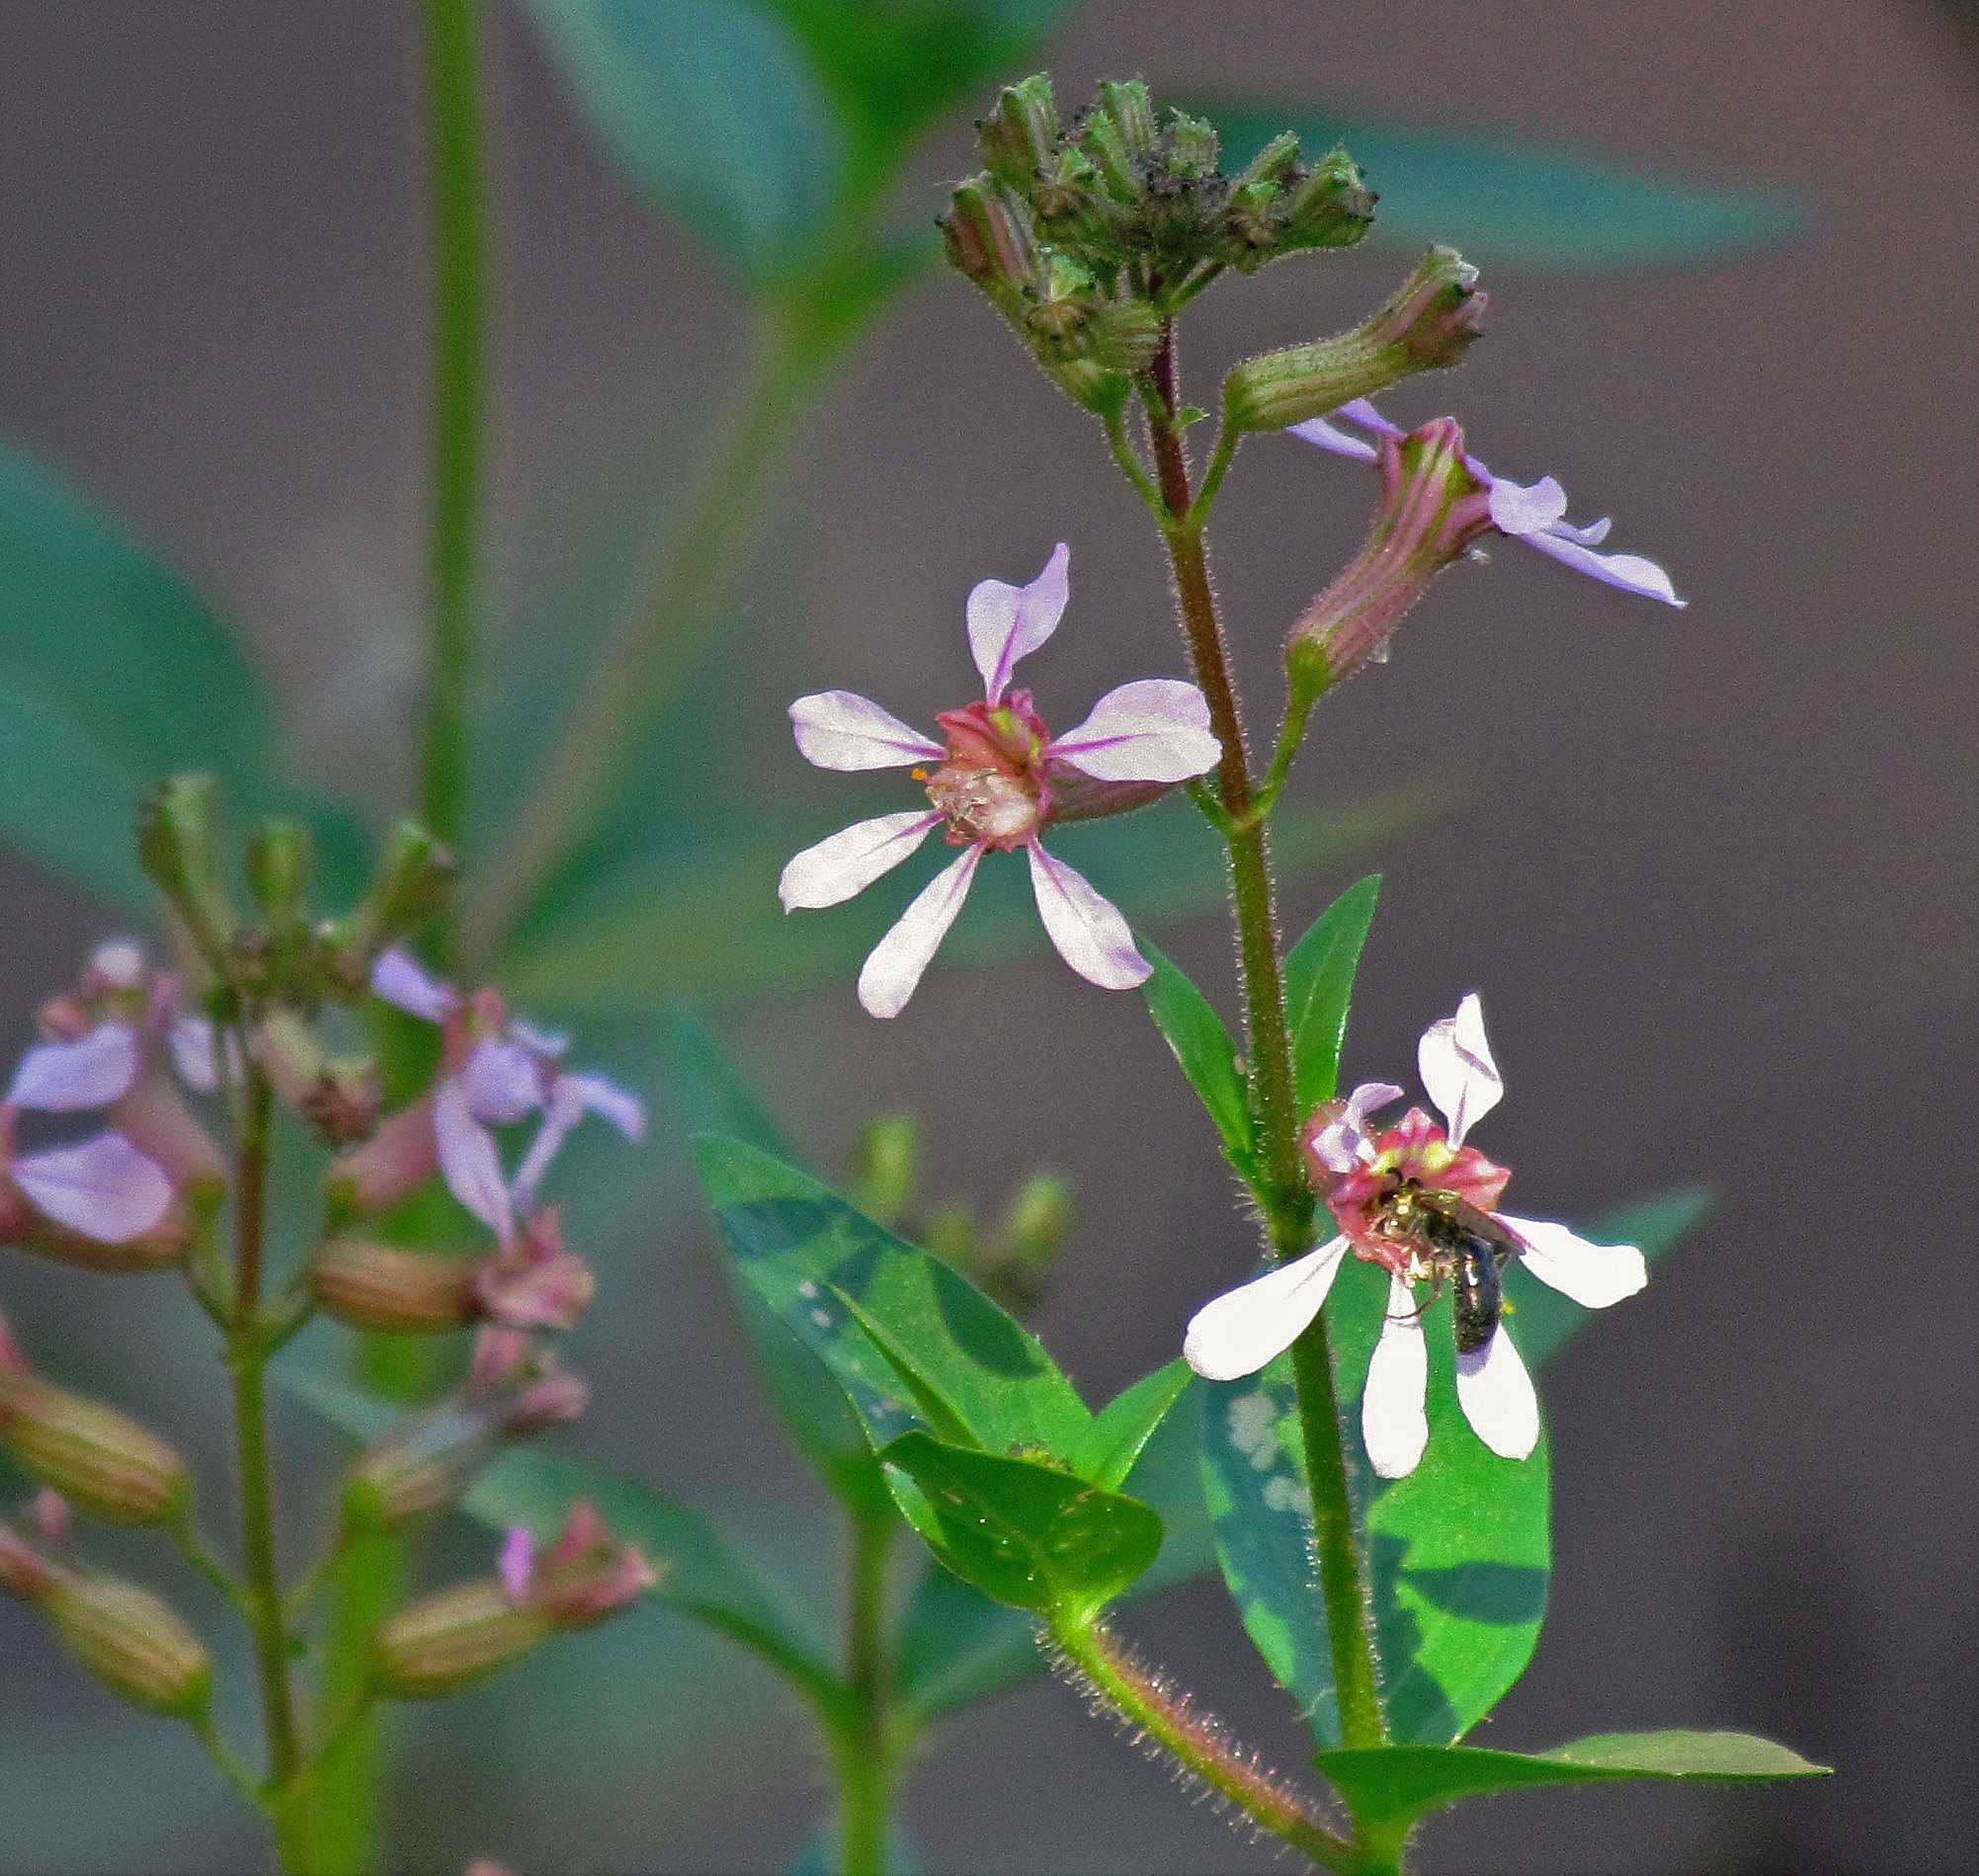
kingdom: Plantae
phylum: Tracheophyta
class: Magnoliopsida
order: Myrtales
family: Lythraceae
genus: Cuphea
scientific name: Cuphea racemosa
